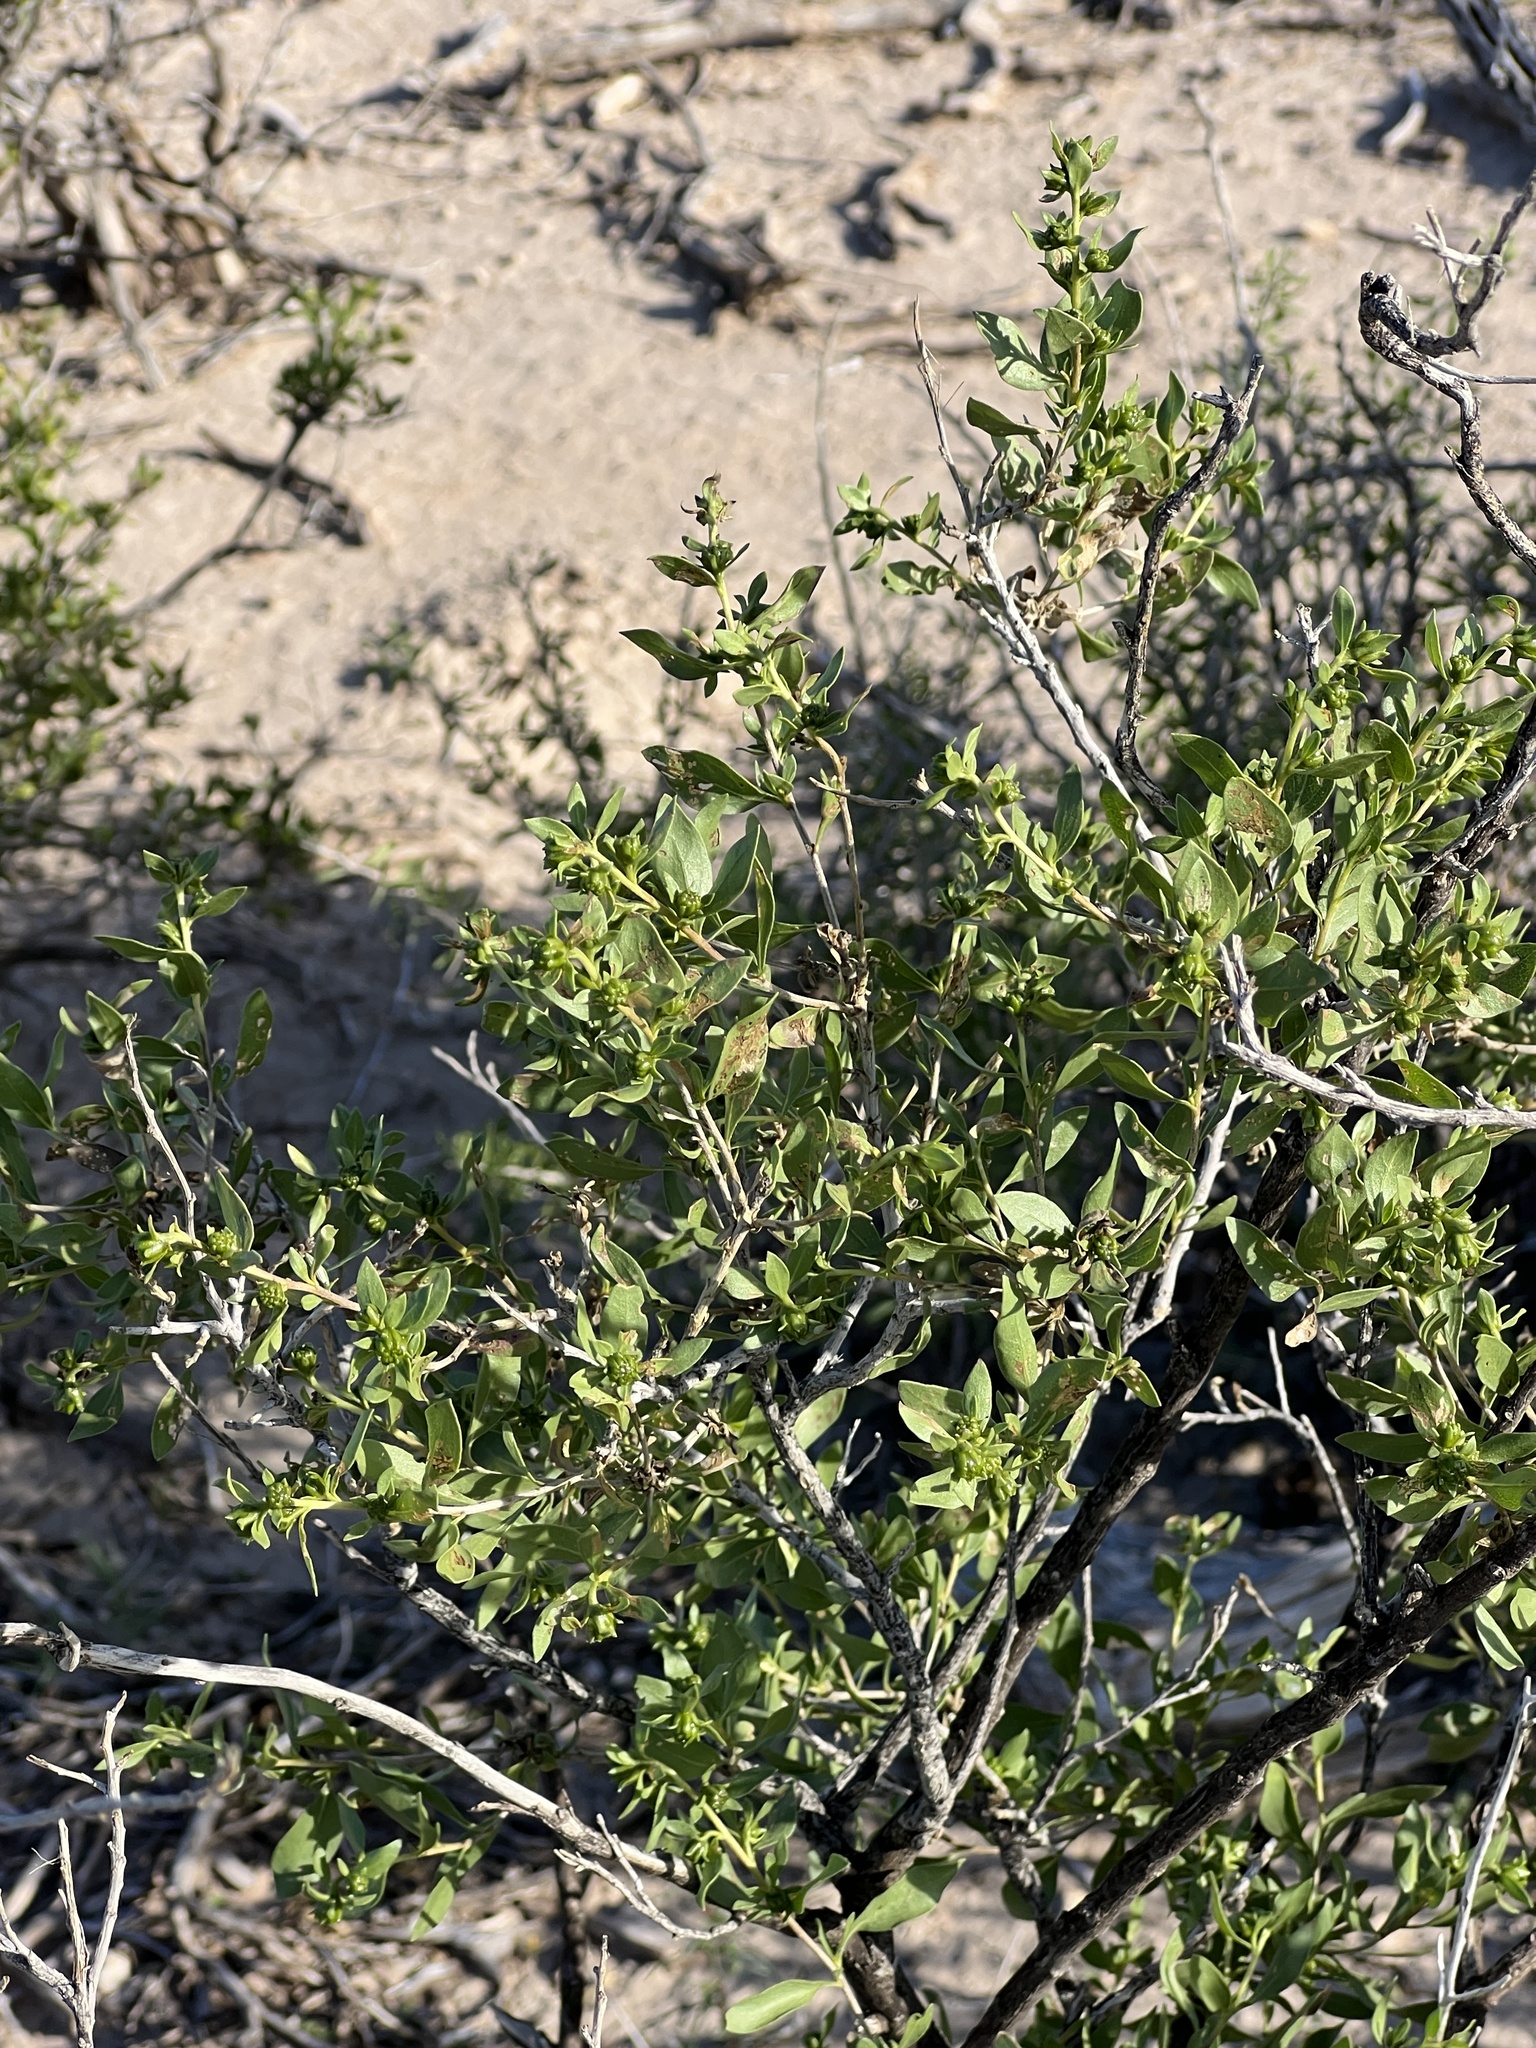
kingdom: Plantae
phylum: Tracheophyta
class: Magnoliopsida
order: Asterales
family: Asteraceae
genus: Flourensia
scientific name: Flourensia cernua
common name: Varnishbush
